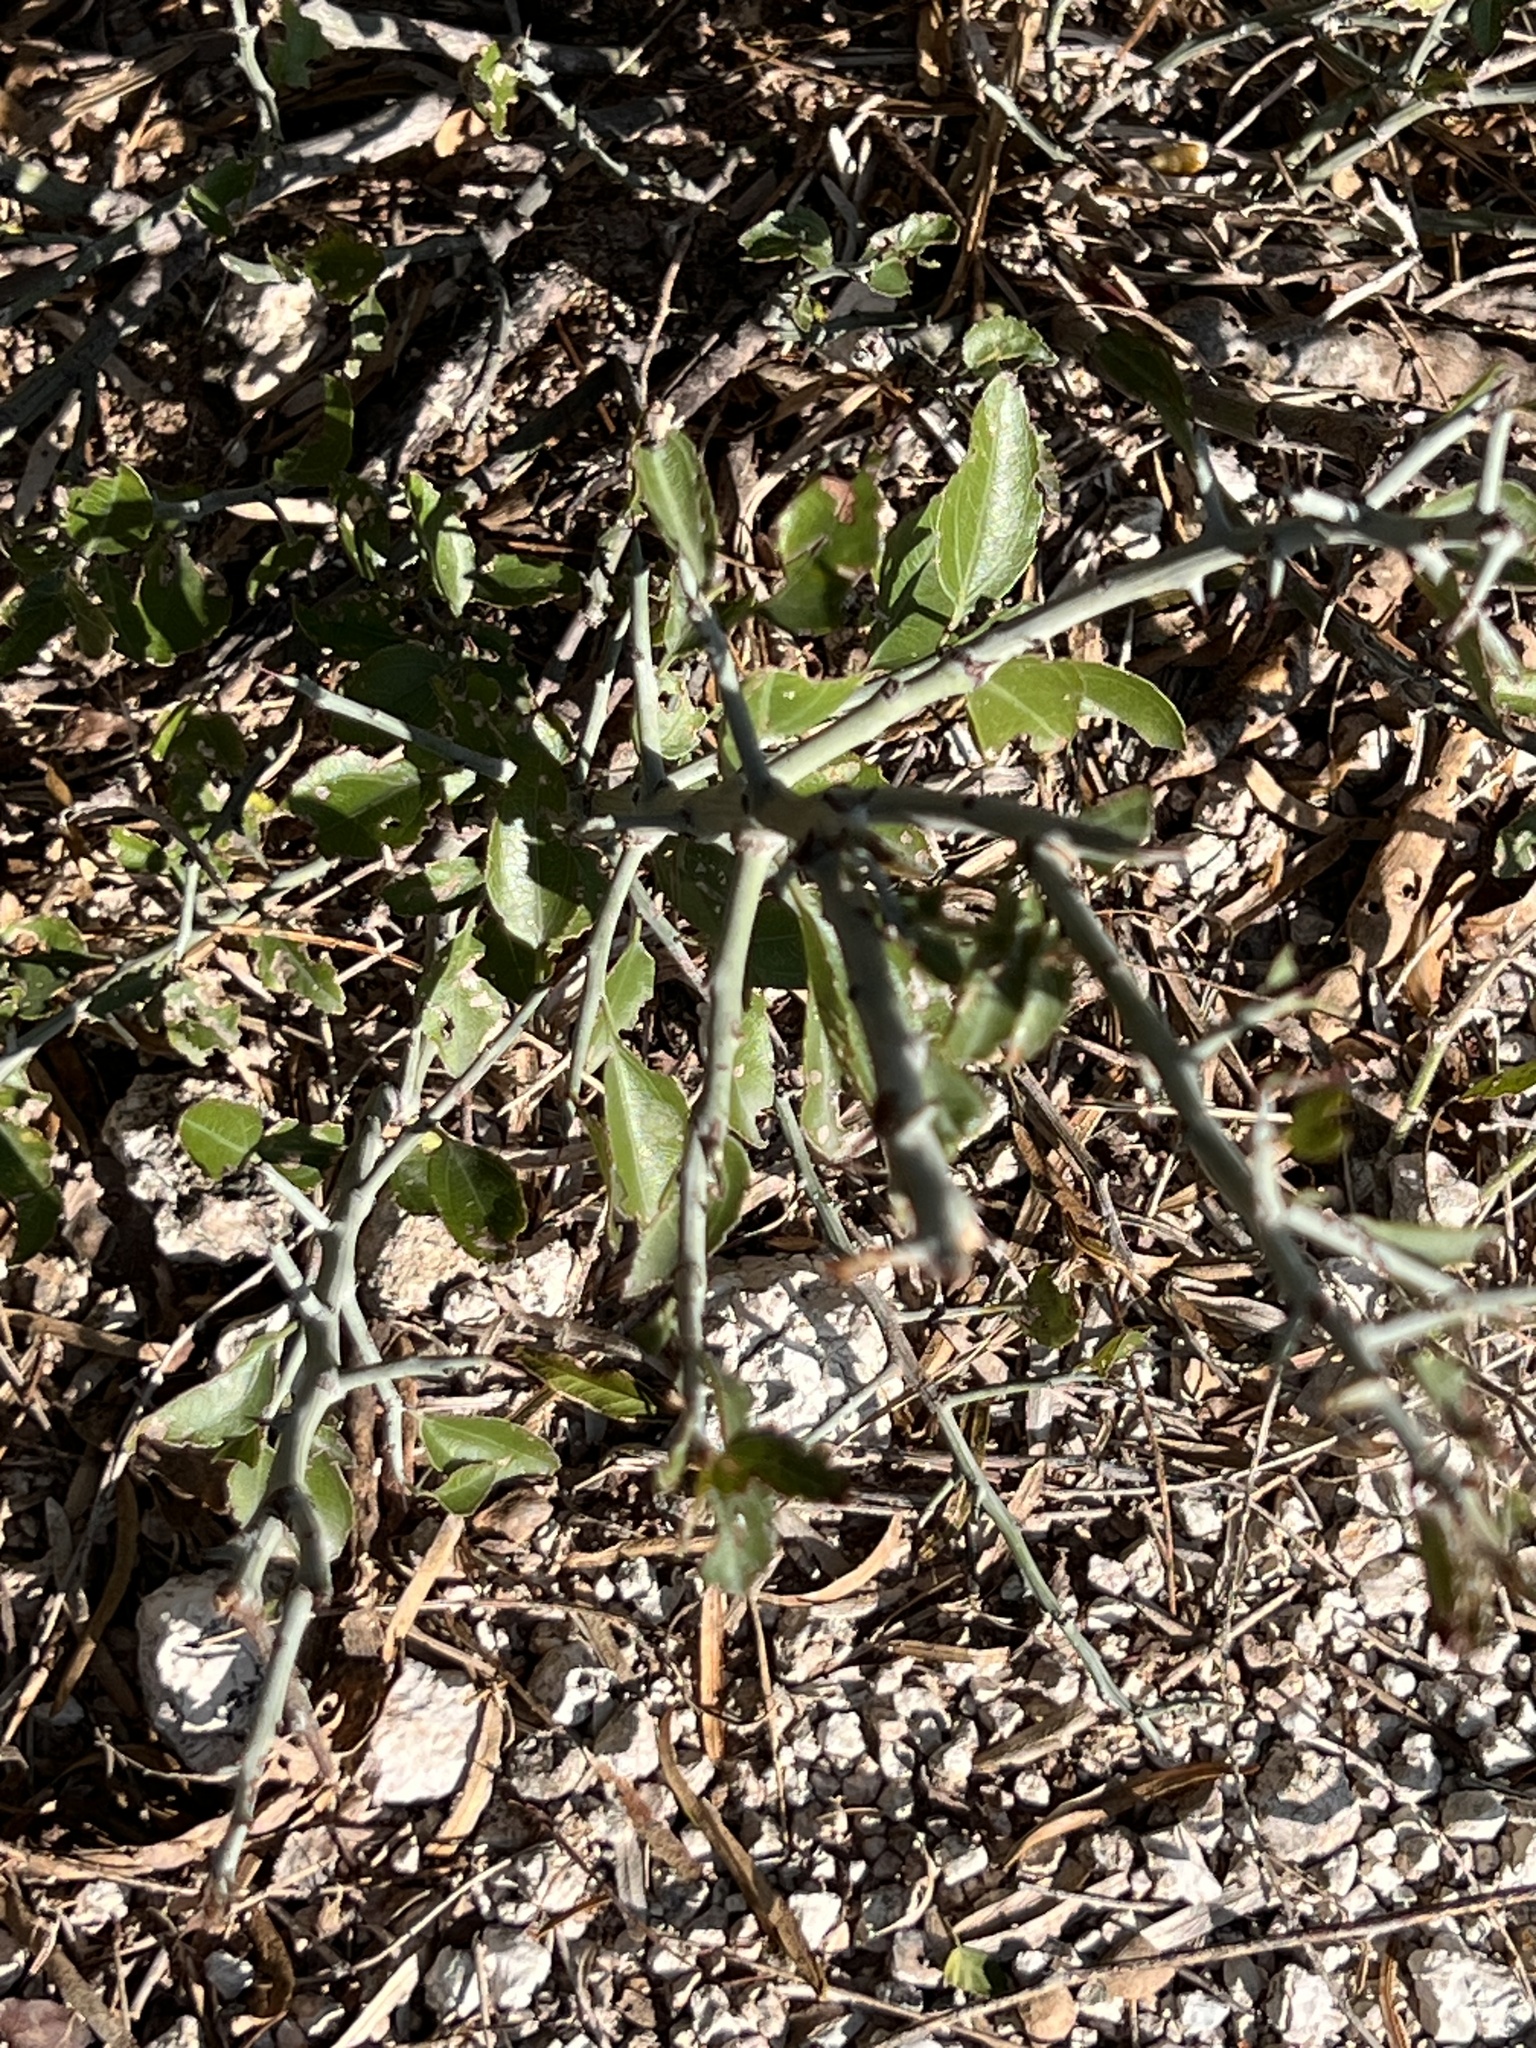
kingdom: Plantae
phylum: Tracheophyta
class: Magnoliopsida
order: Rosales
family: Rhamnaceae
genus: Sarcomphalus
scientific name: Sarcomphalus obtusifolius
